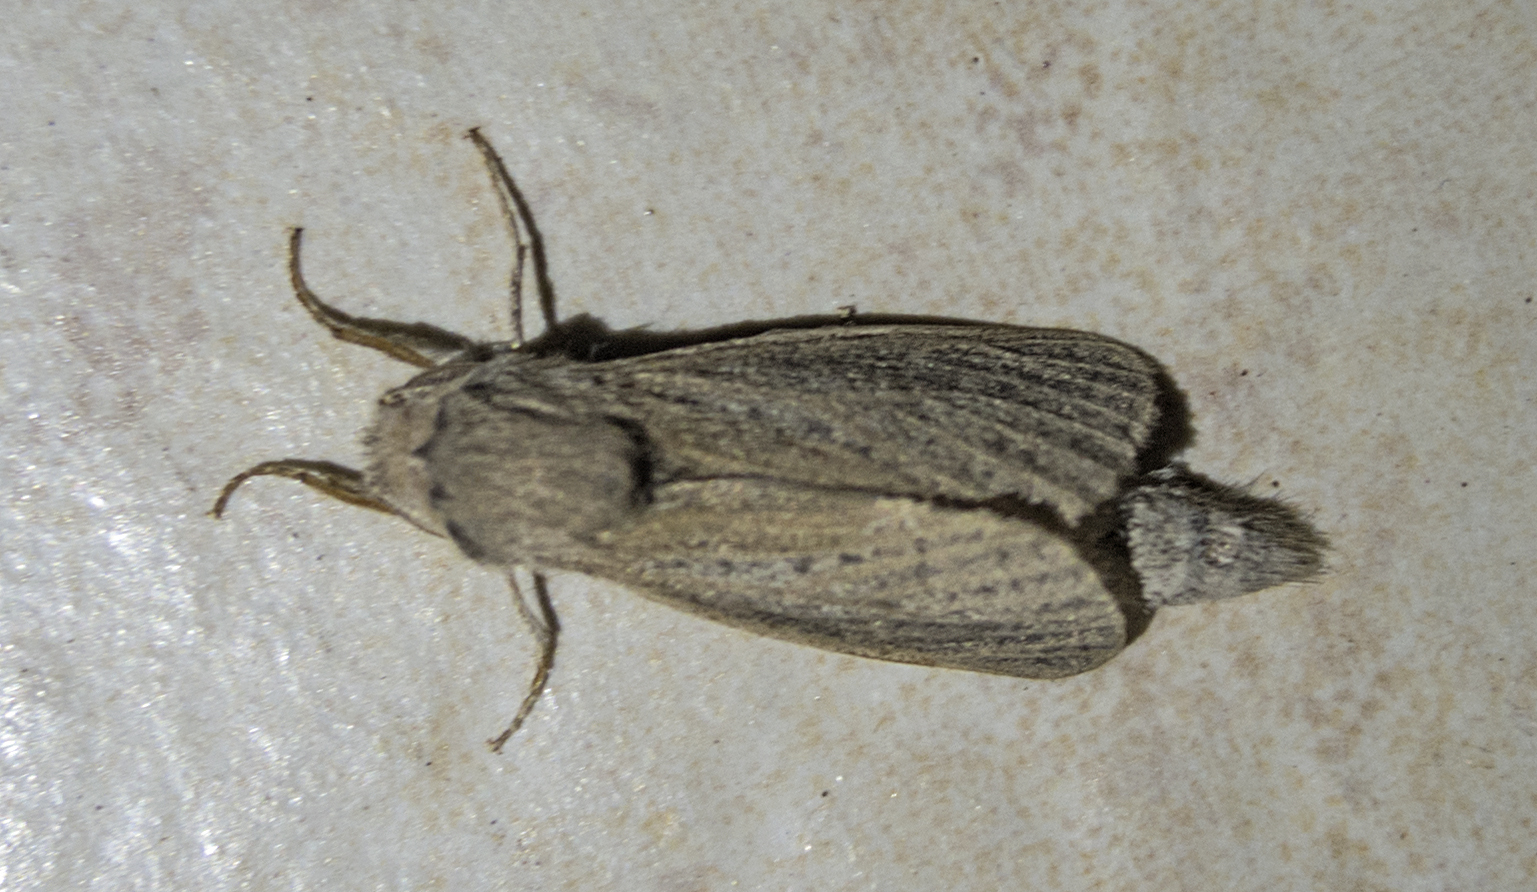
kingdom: Animalia
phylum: Arthropoda
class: Insecta
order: Lepidoptera
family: Cossidae
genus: Phragmataecia
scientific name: Phragmataecia castaneae
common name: Reed leopard
